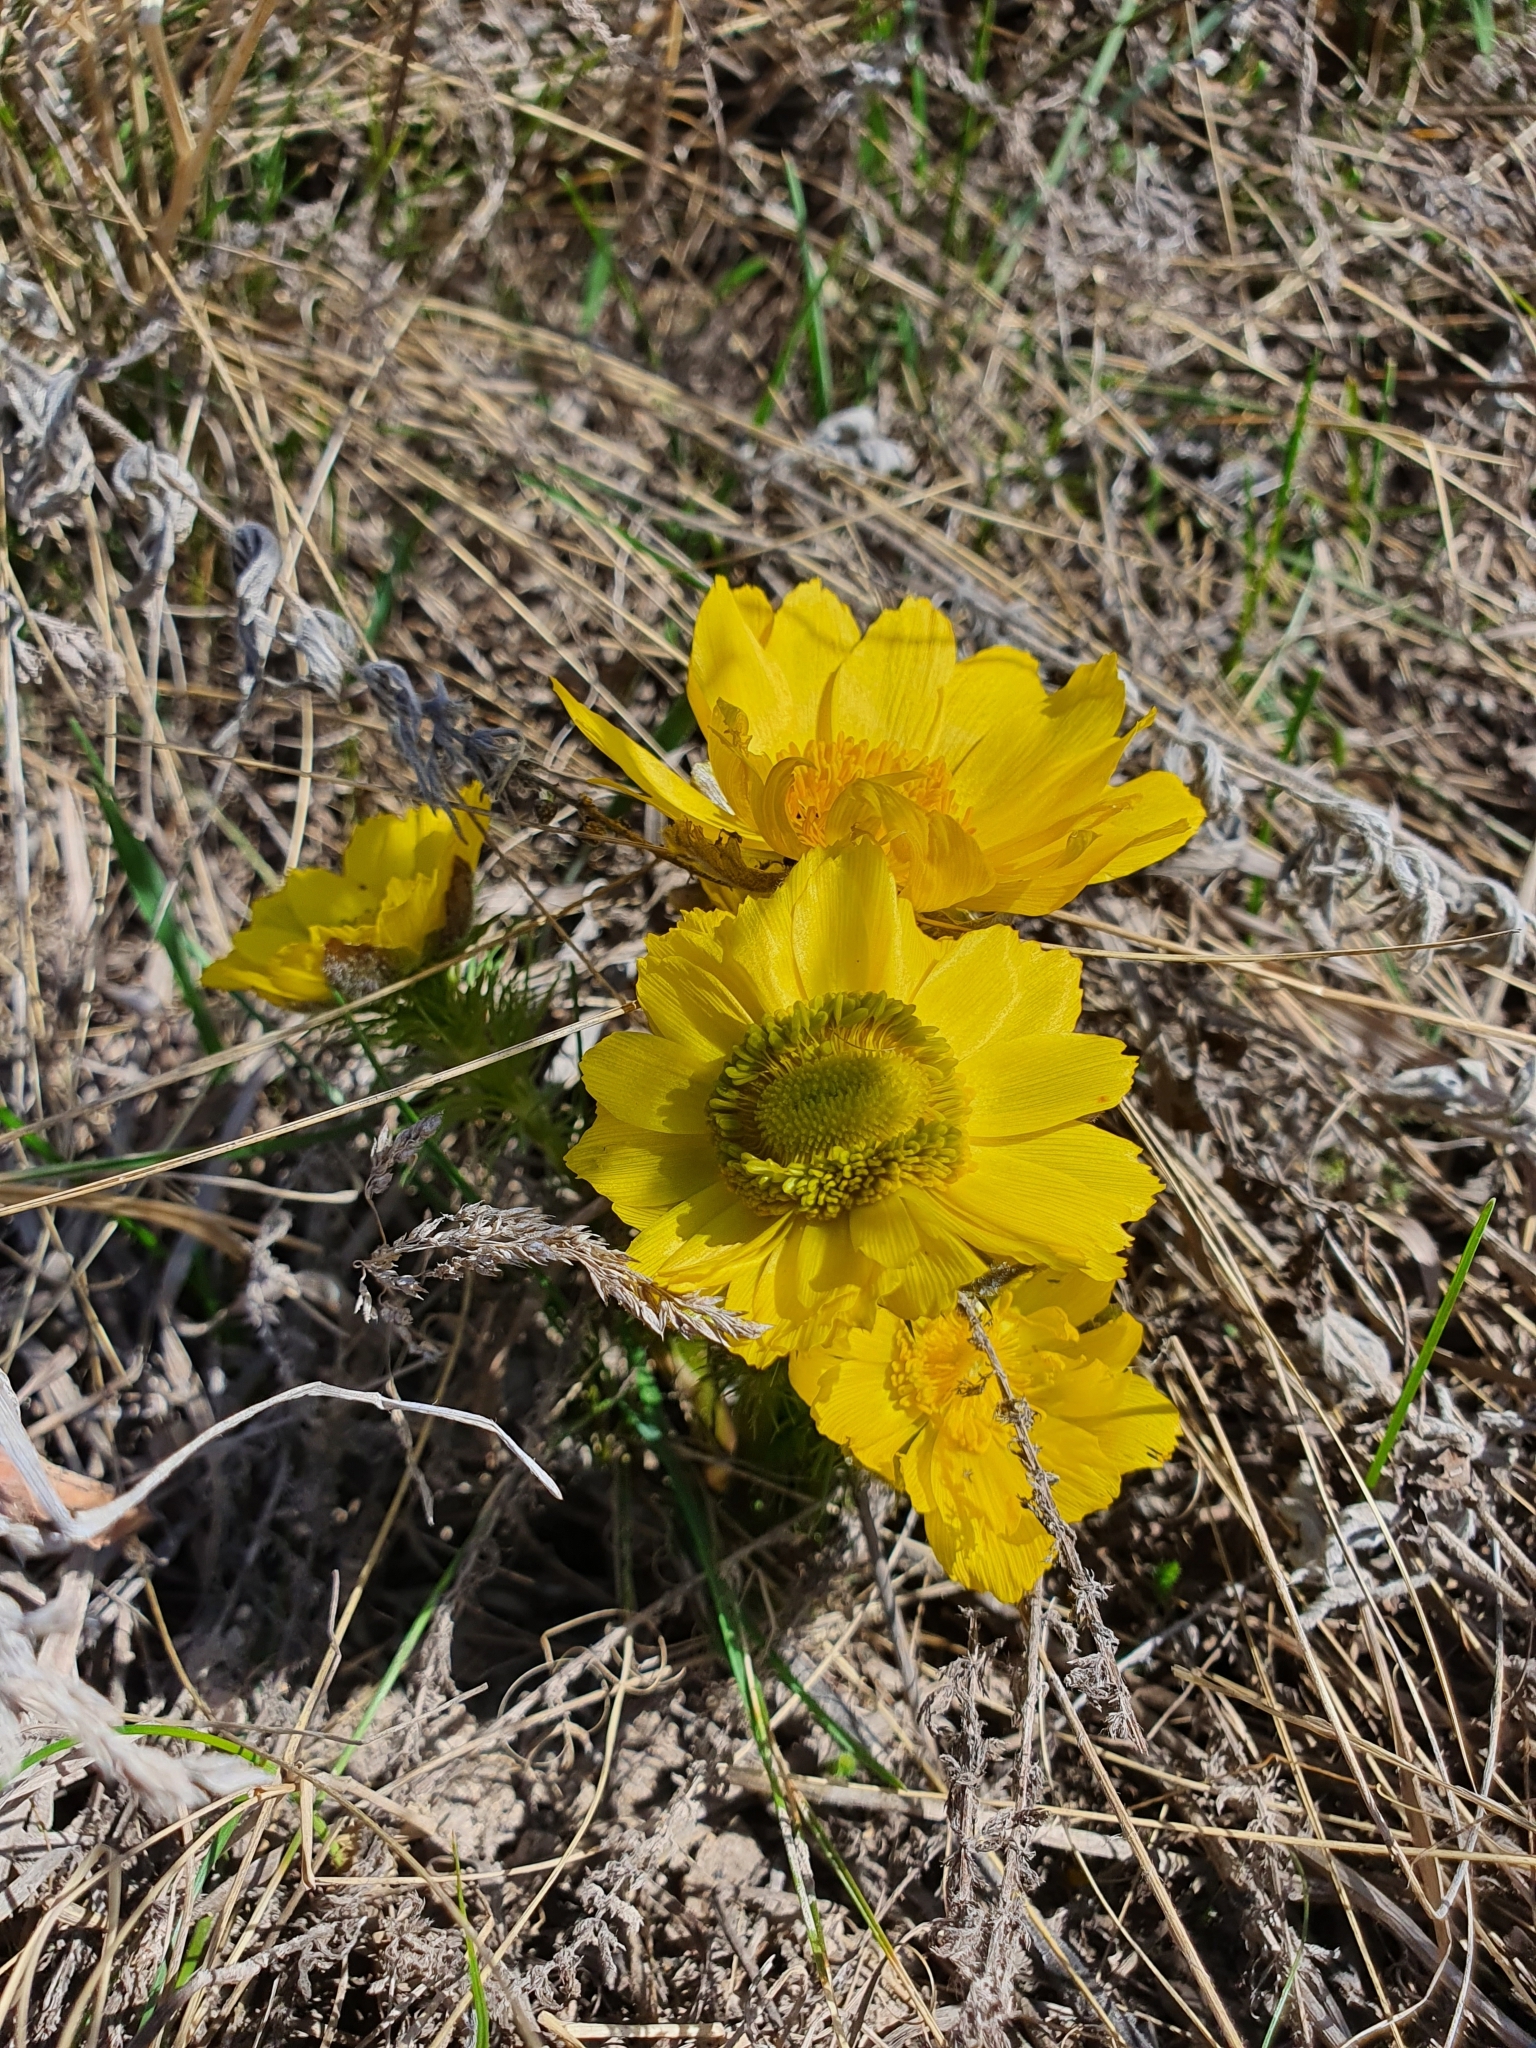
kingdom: Plantae
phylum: Tracheophyta
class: Magnoliopsida
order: Ranunculales
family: Ranunculaceae
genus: Adonis
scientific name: Adonis vernalis
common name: Yellow pheasants-eye
